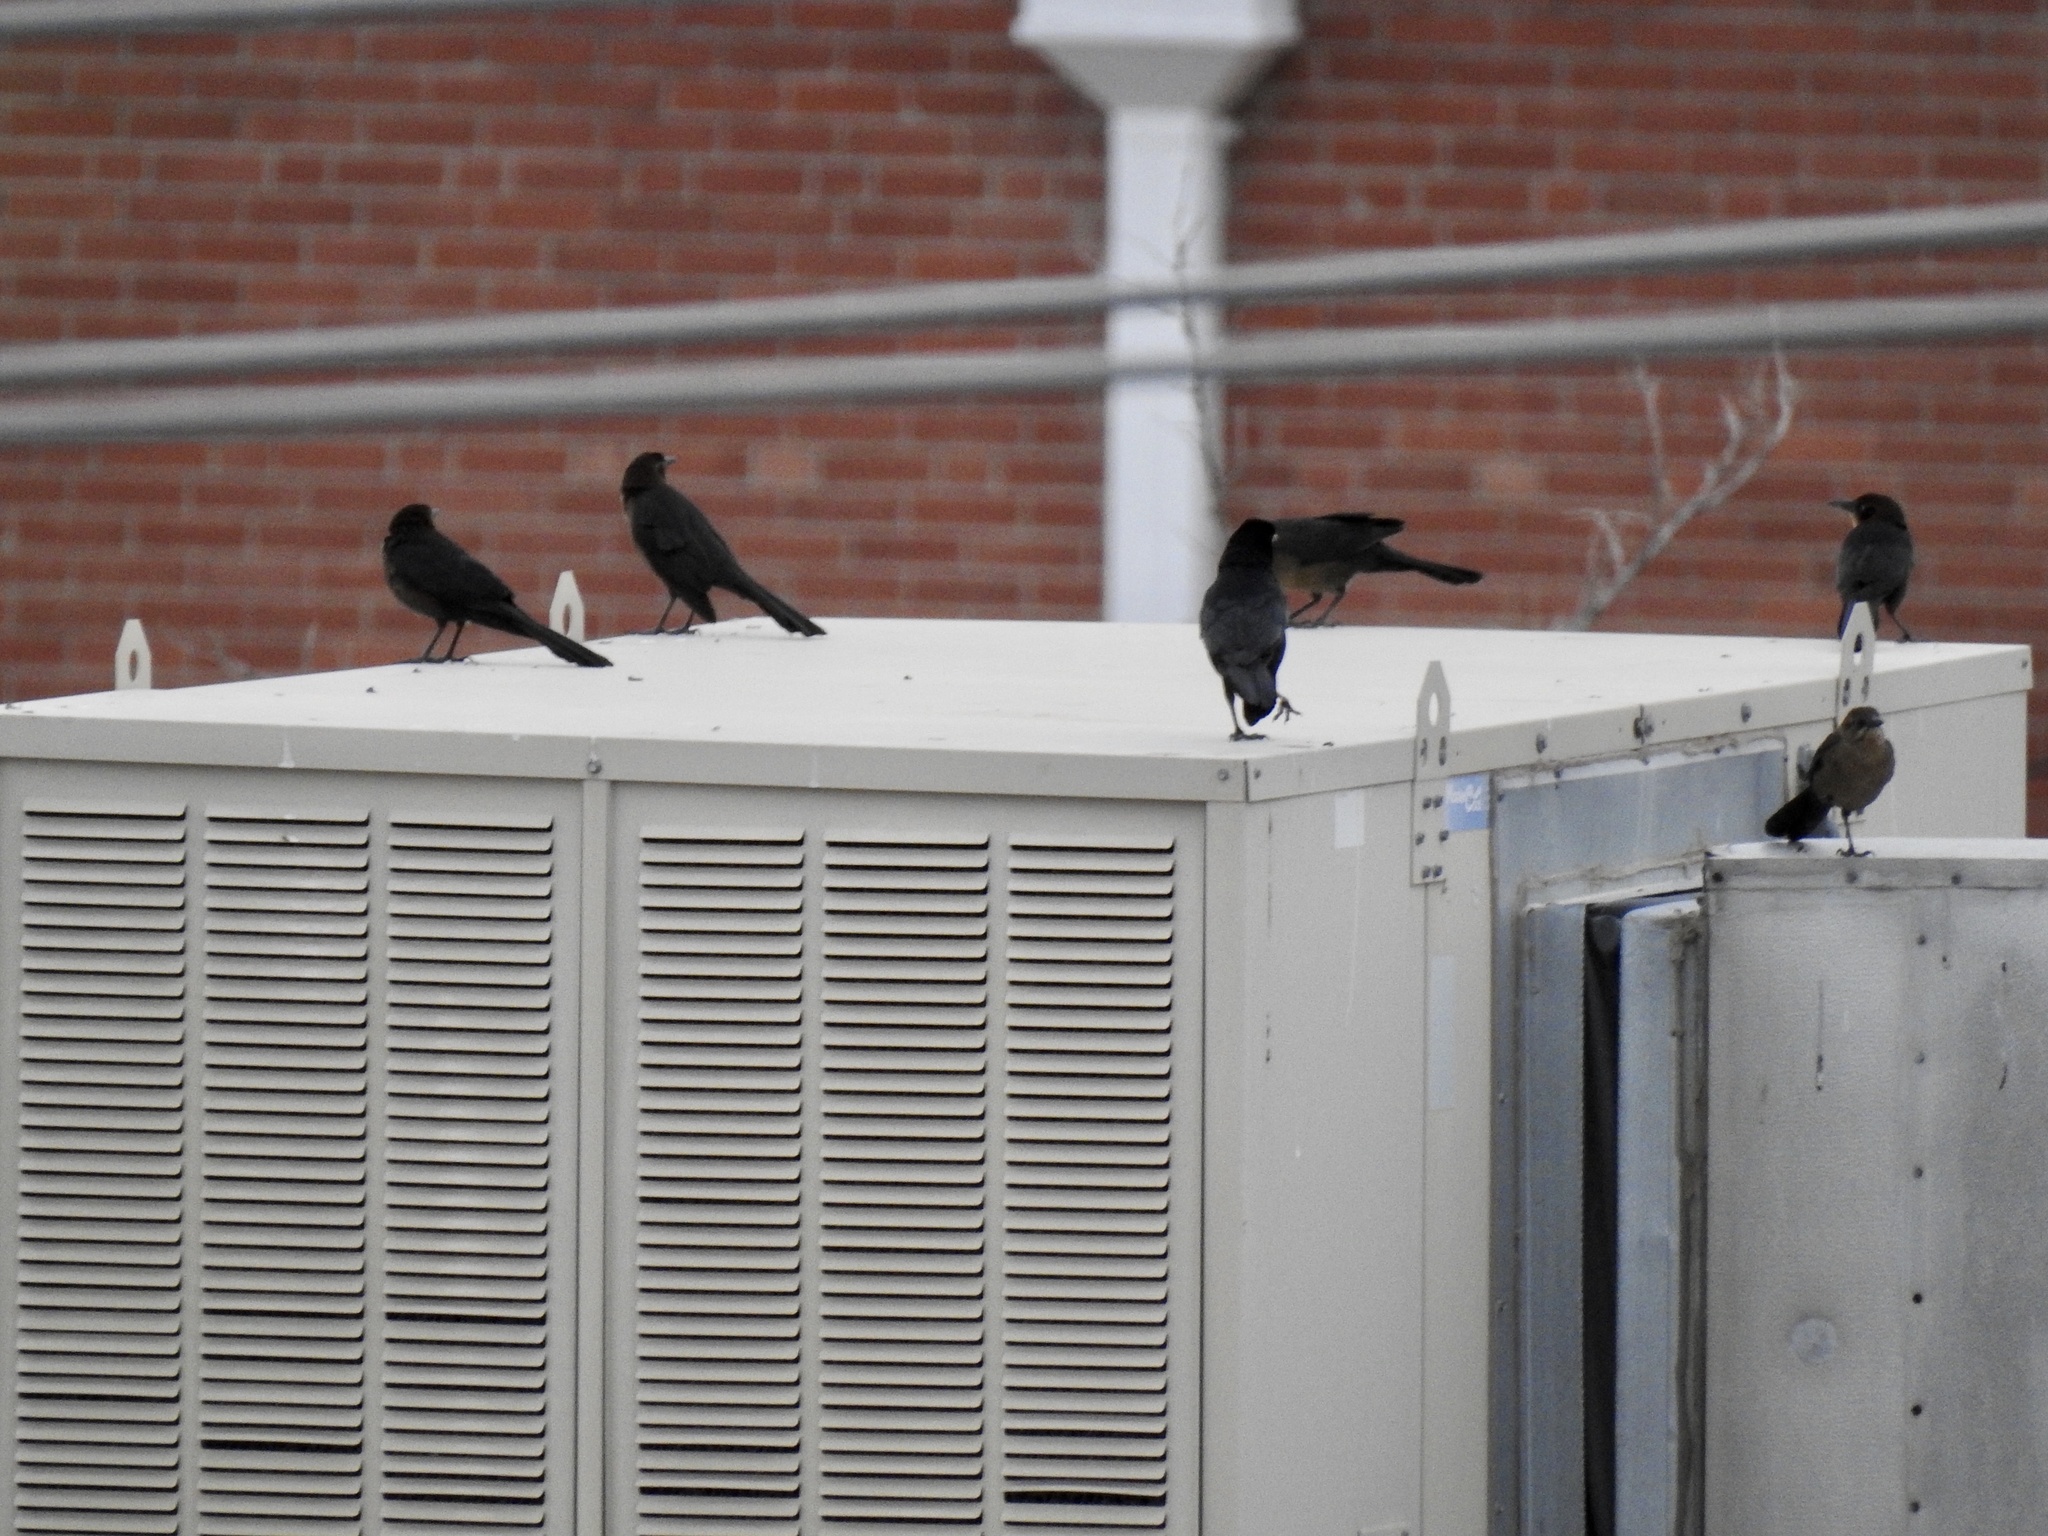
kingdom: Animalia
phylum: Chordata
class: Aves
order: Passeriformes
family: Icteridae
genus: Quiscalus
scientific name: Quiscalus mexicanus
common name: Great-tailed grackle
